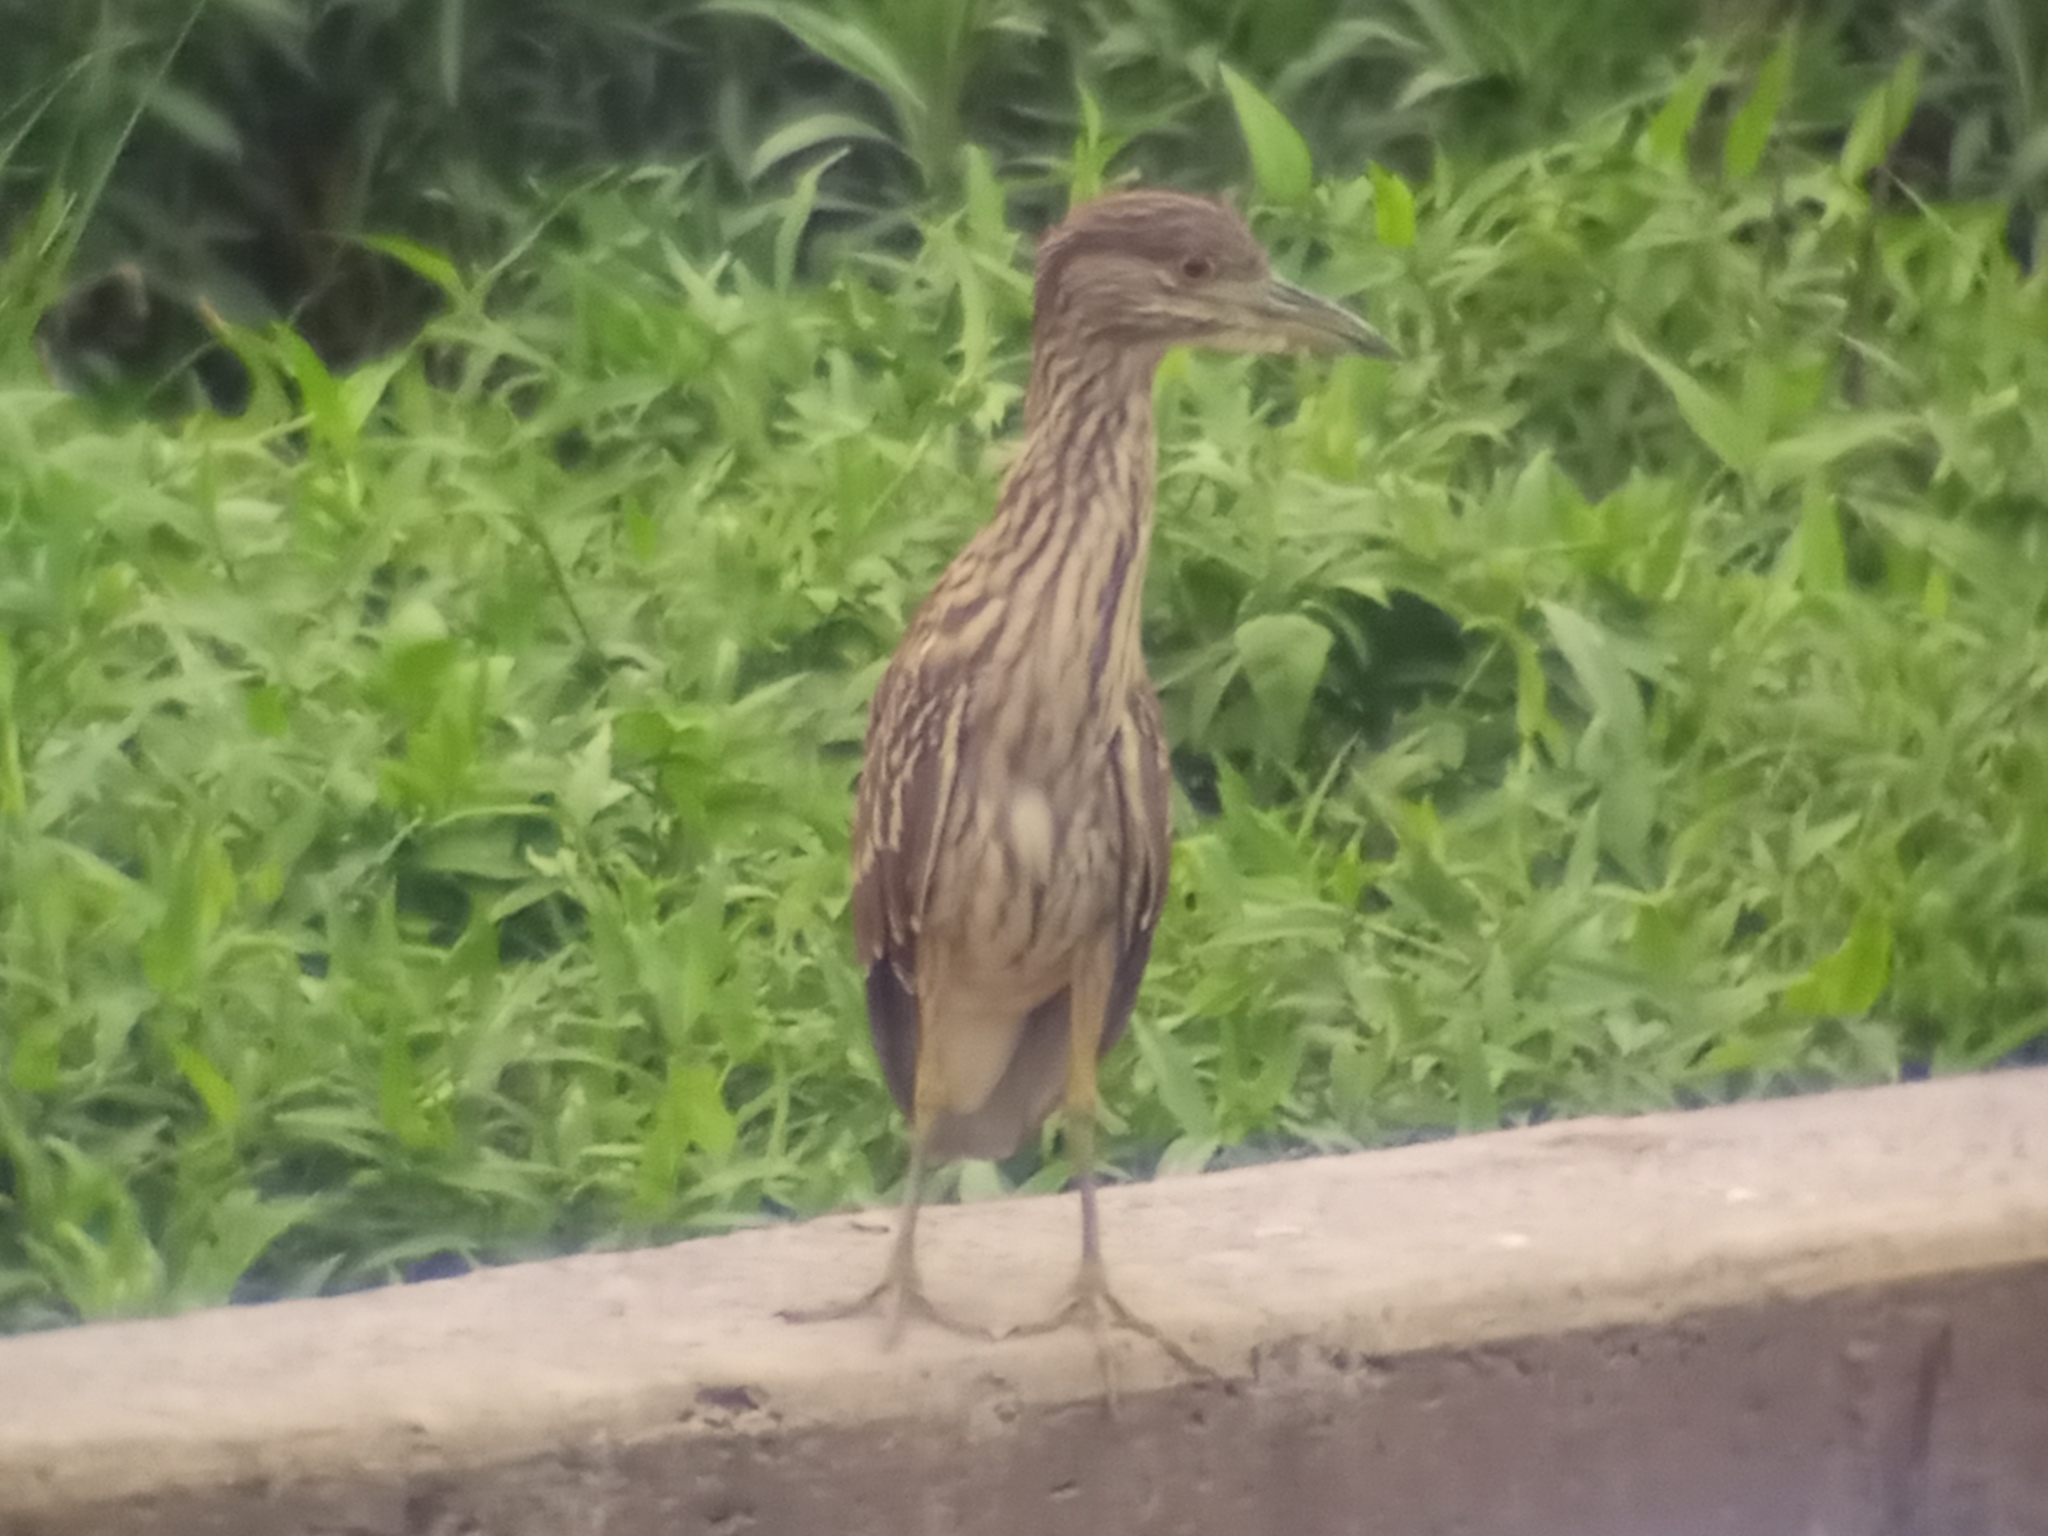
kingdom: Animalia
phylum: Chordata
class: Aves
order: Pelecaniformes
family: Ardeidae
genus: Nycticorax
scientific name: Nycticorax nycticorax
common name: Black-crowned night heron
